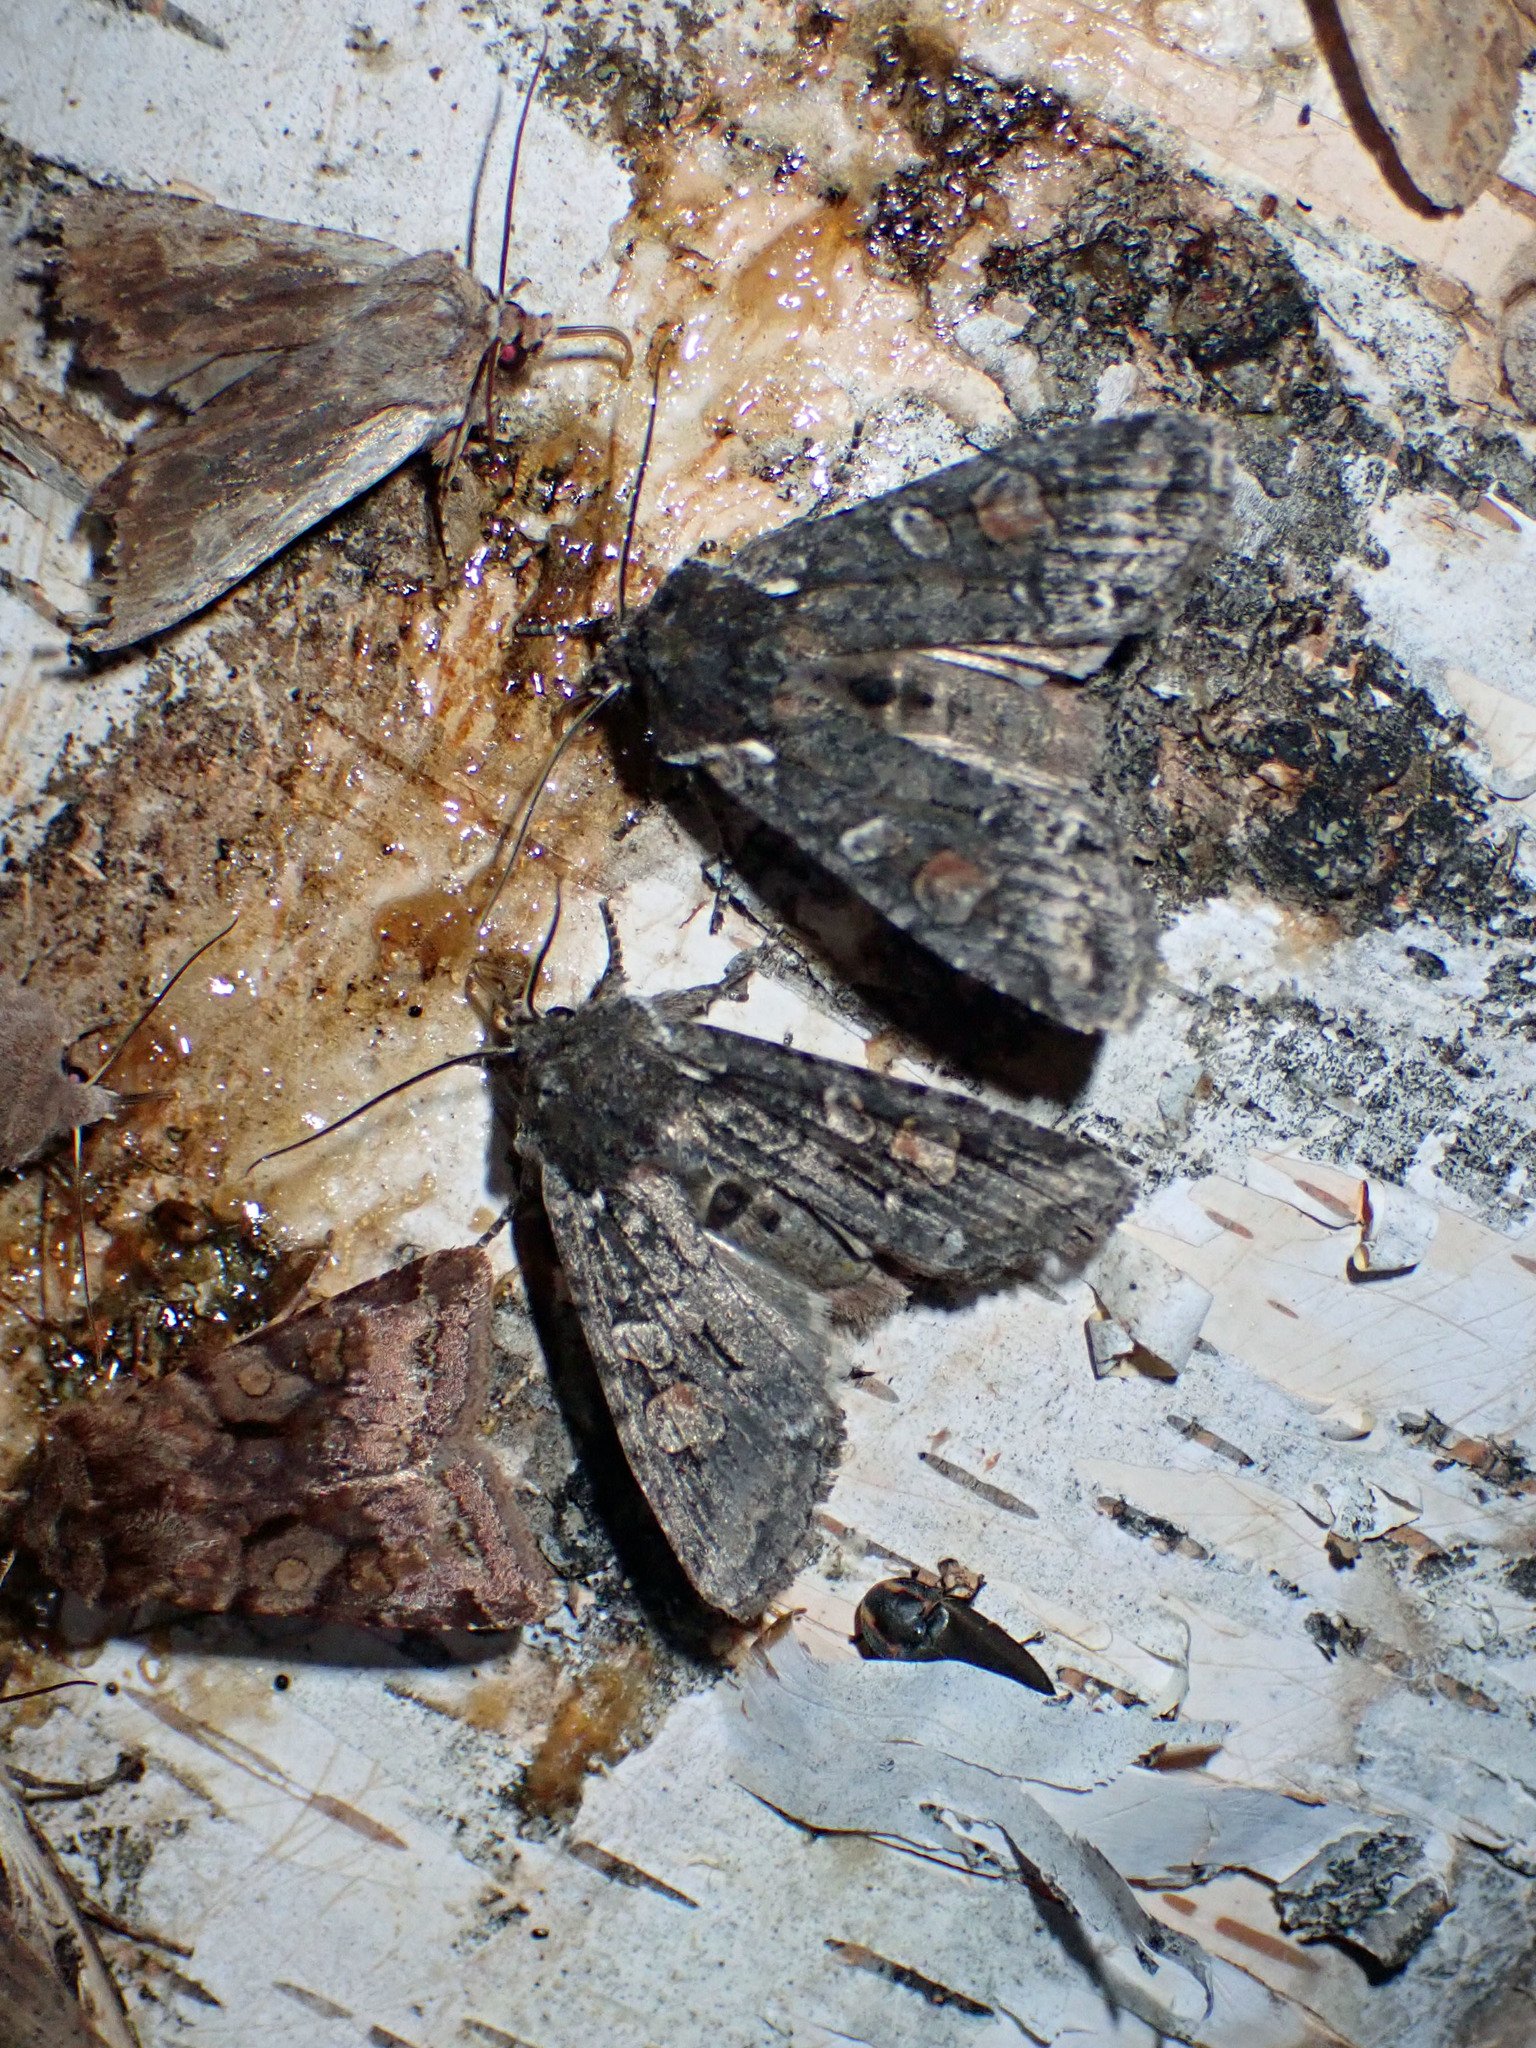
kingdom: Animalia
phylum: Arthropoda
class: Insecta
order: Lepidoptera
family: Noctuidae
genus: Lithophane
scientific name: Lithophane pexata
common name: Plush-naped pinion moth
